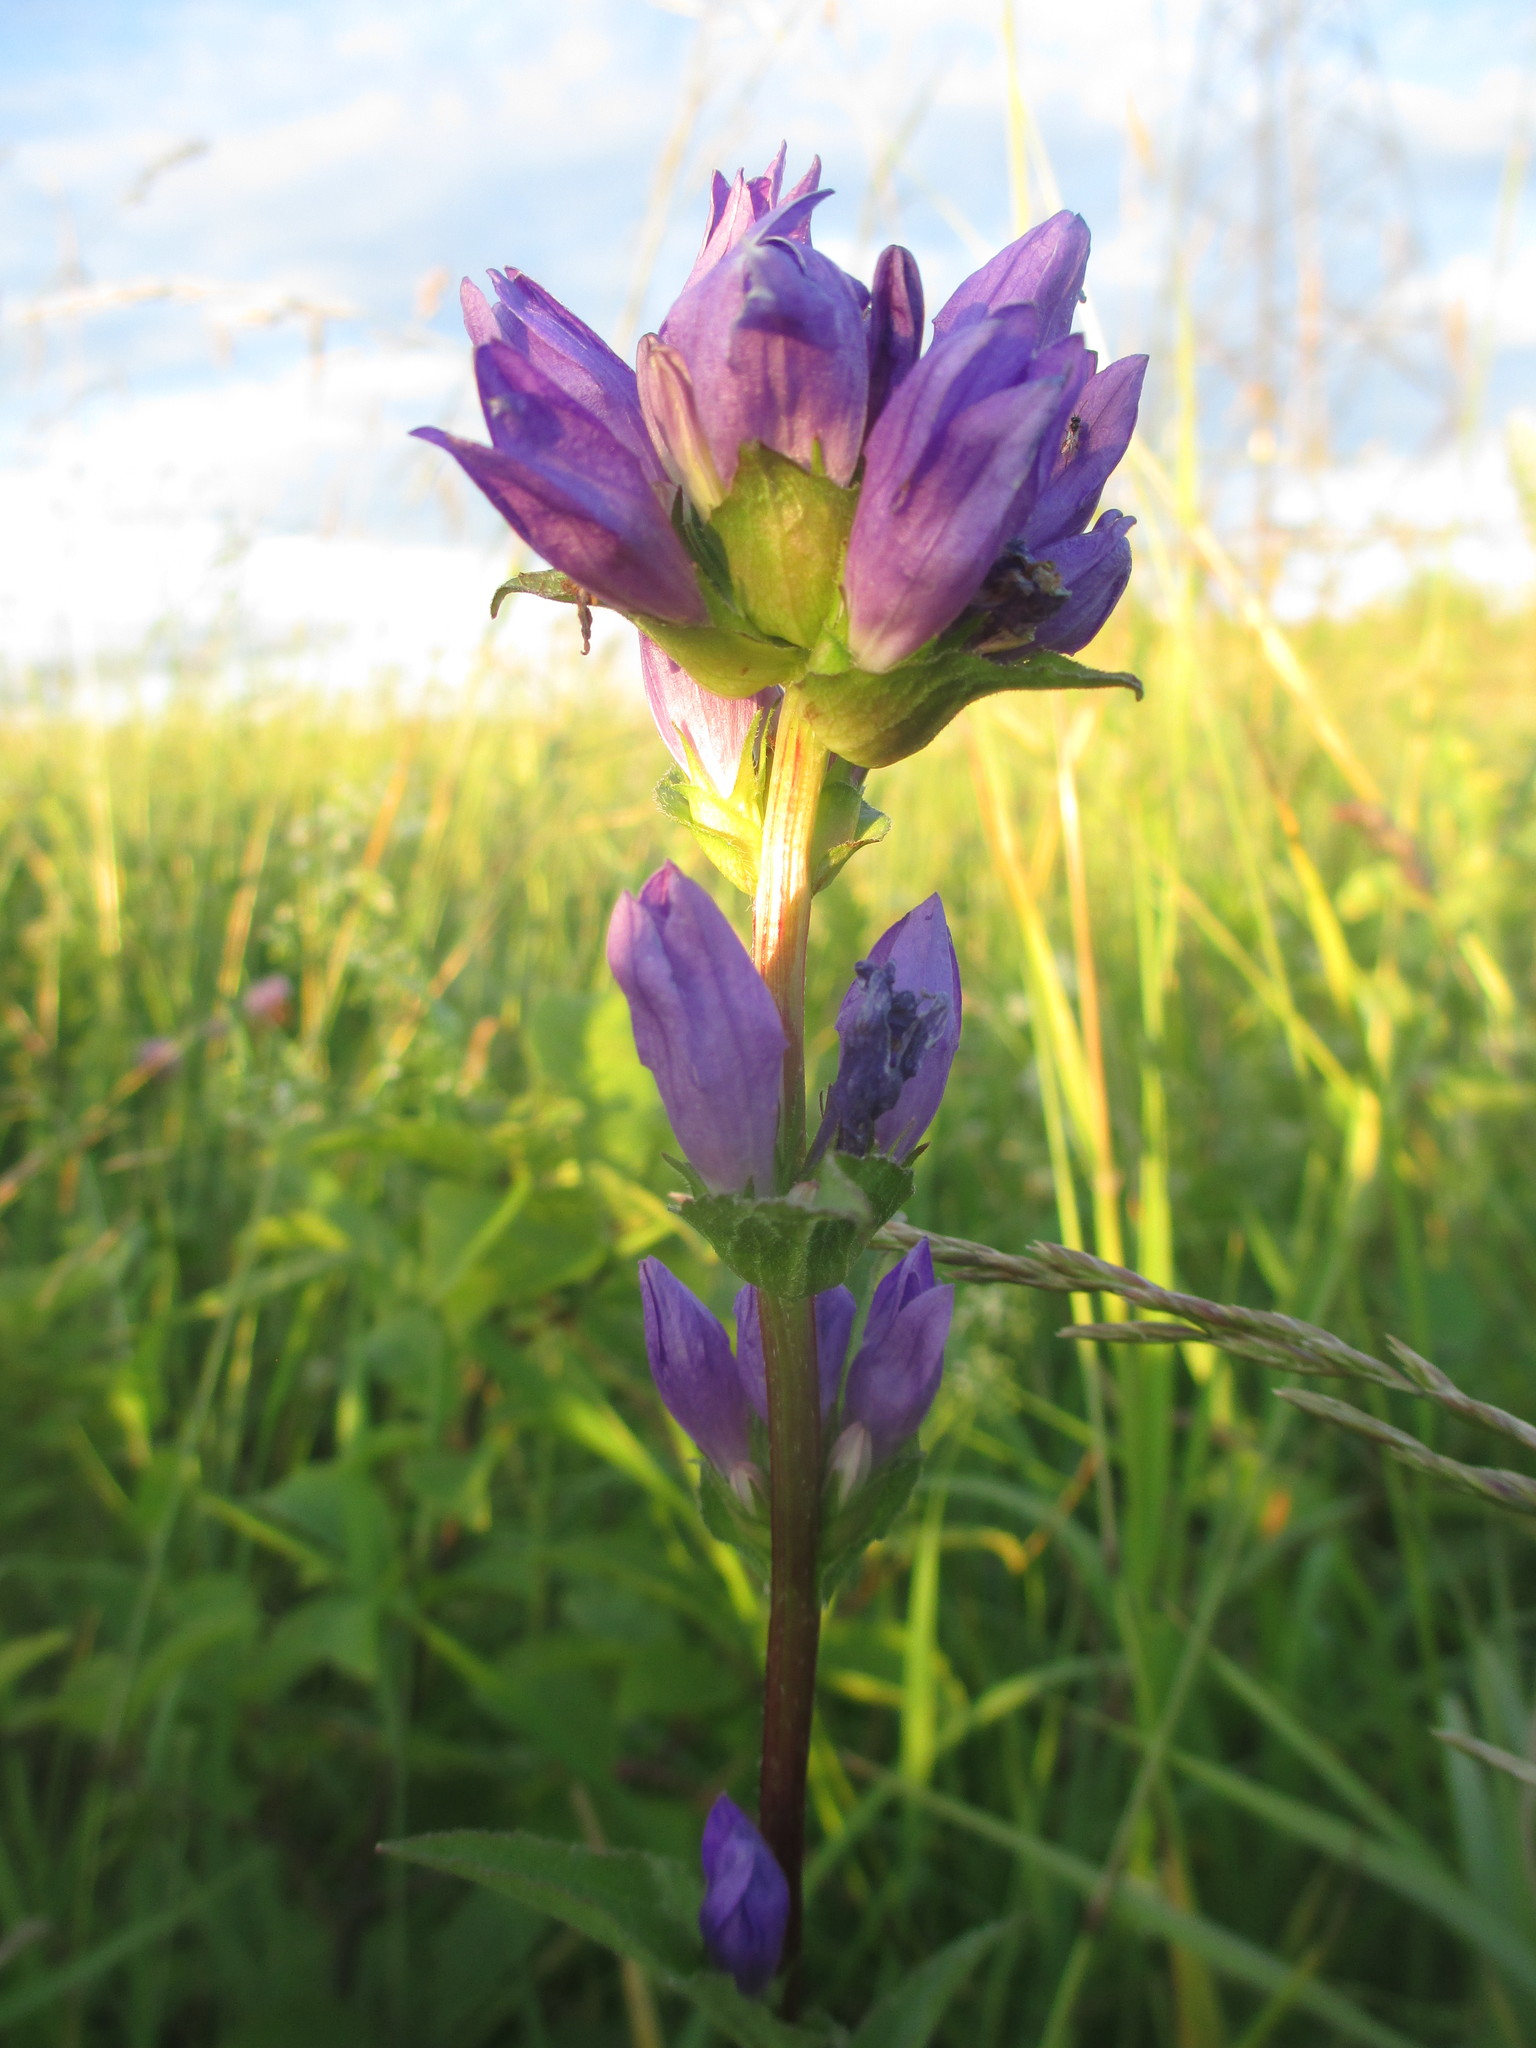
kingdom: Plantae
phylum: Tracheophyta
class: Magnoliopsida
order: Asterales
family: Campanulaceae
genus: Campanula
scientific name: Campanula glomerata
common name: Clustered bellflower
